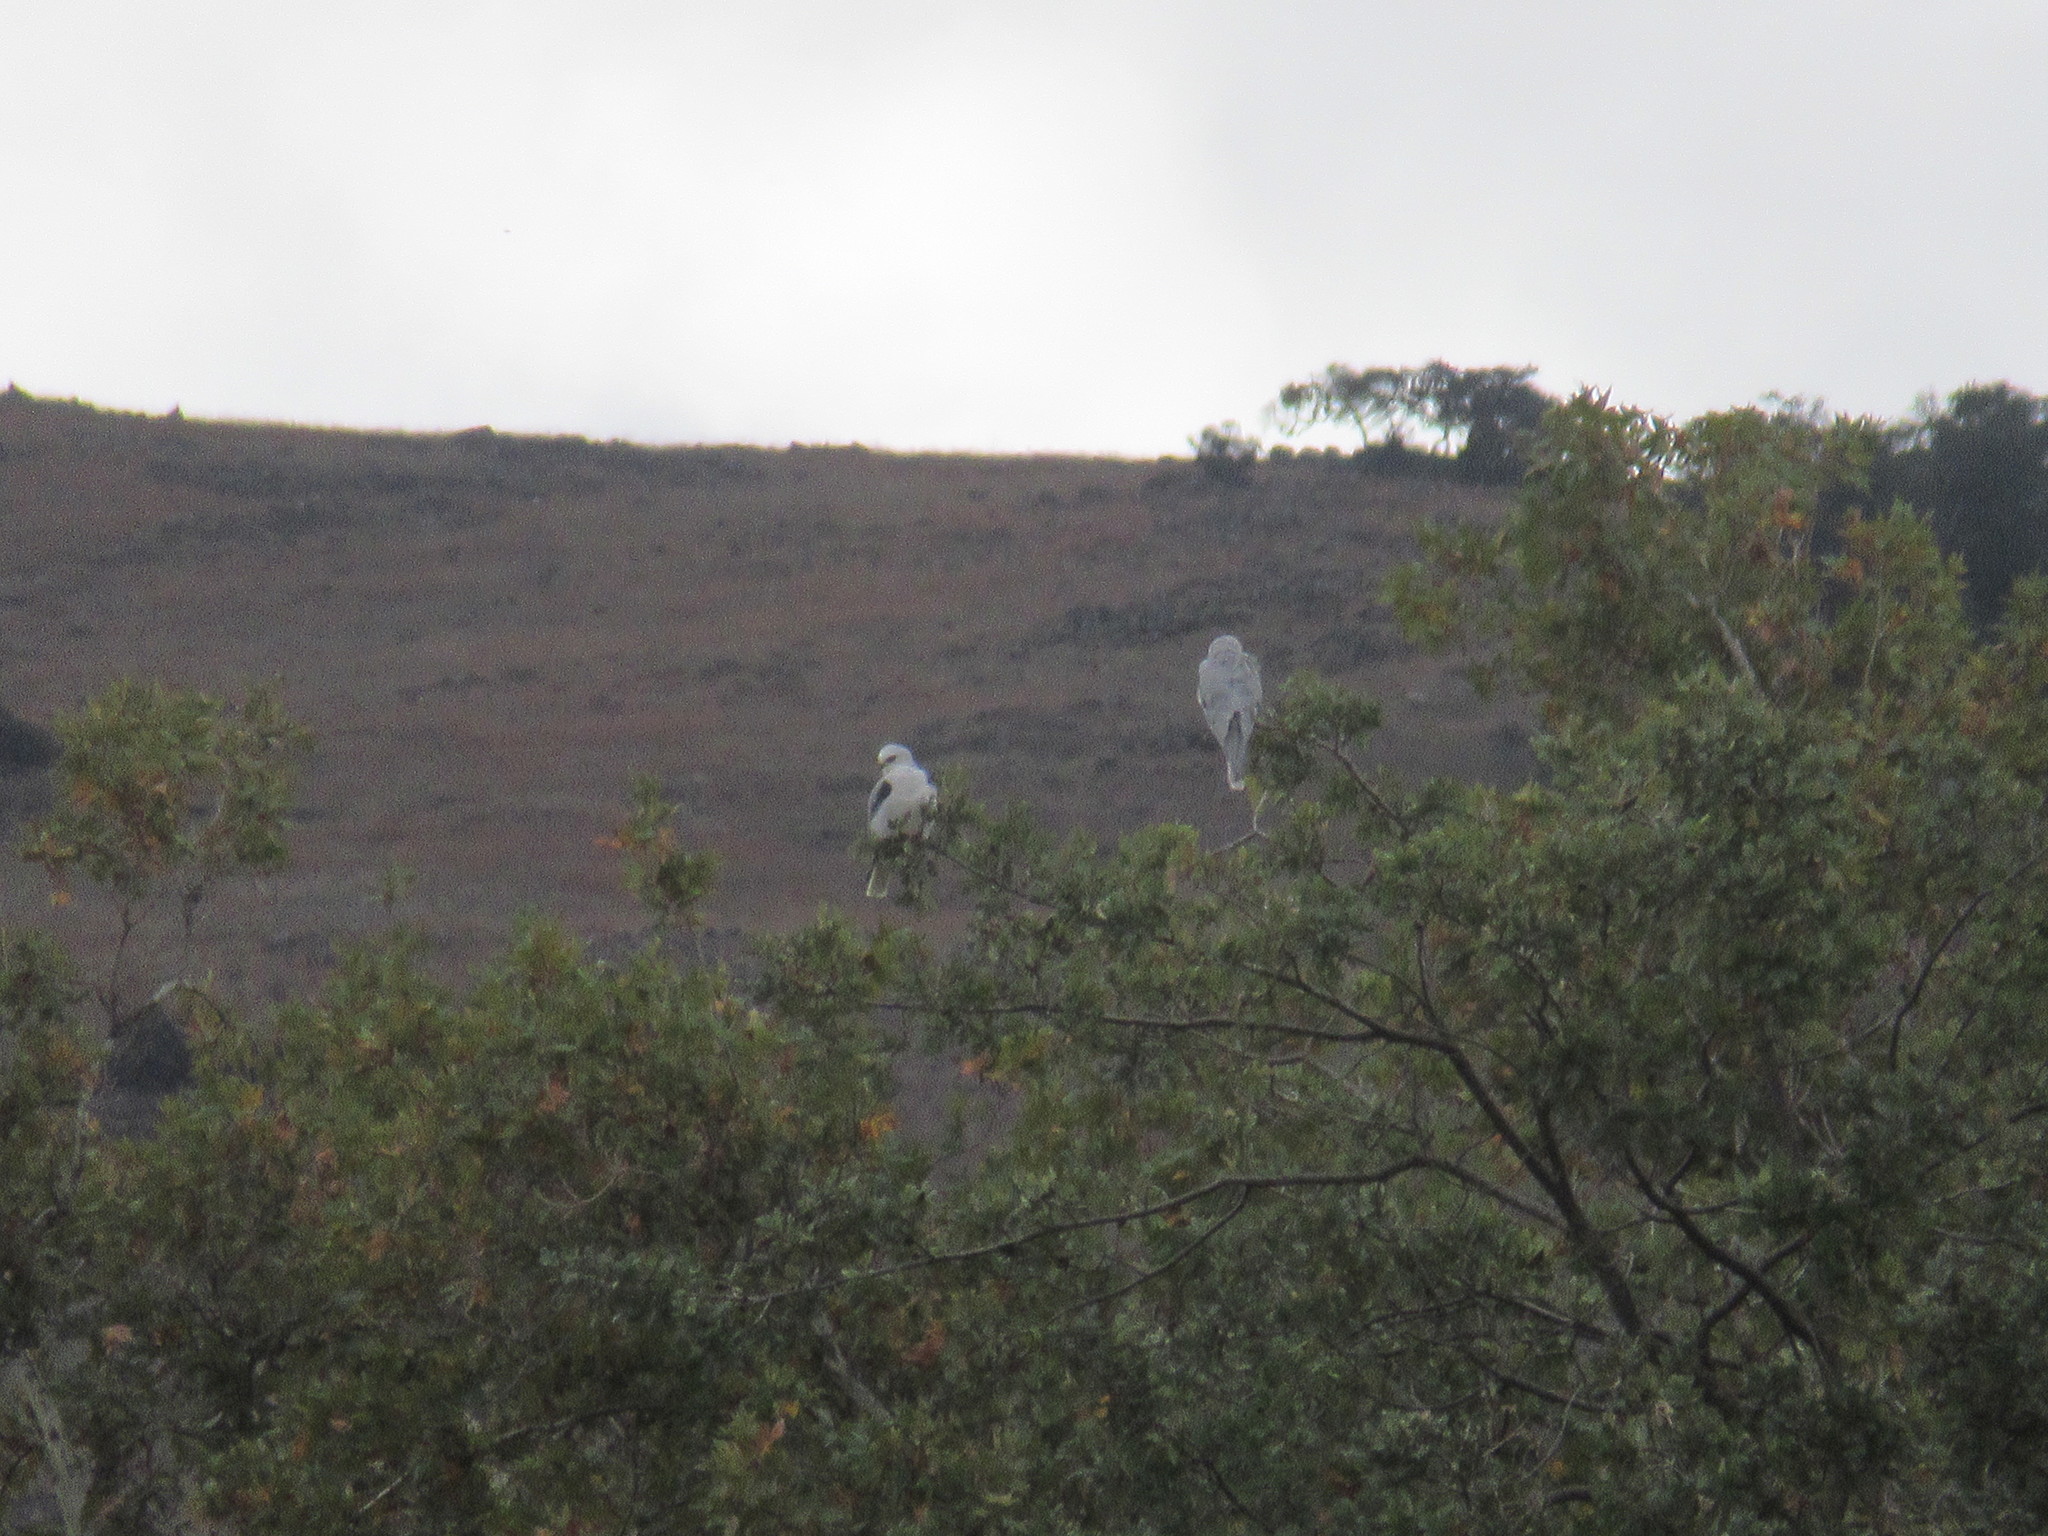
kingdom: Animalia
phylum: Chordata
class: Aves
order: Accipitriformes
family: Accipitridae
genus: Elanus
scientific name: Elanus leucurus
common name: White-tailed kite
